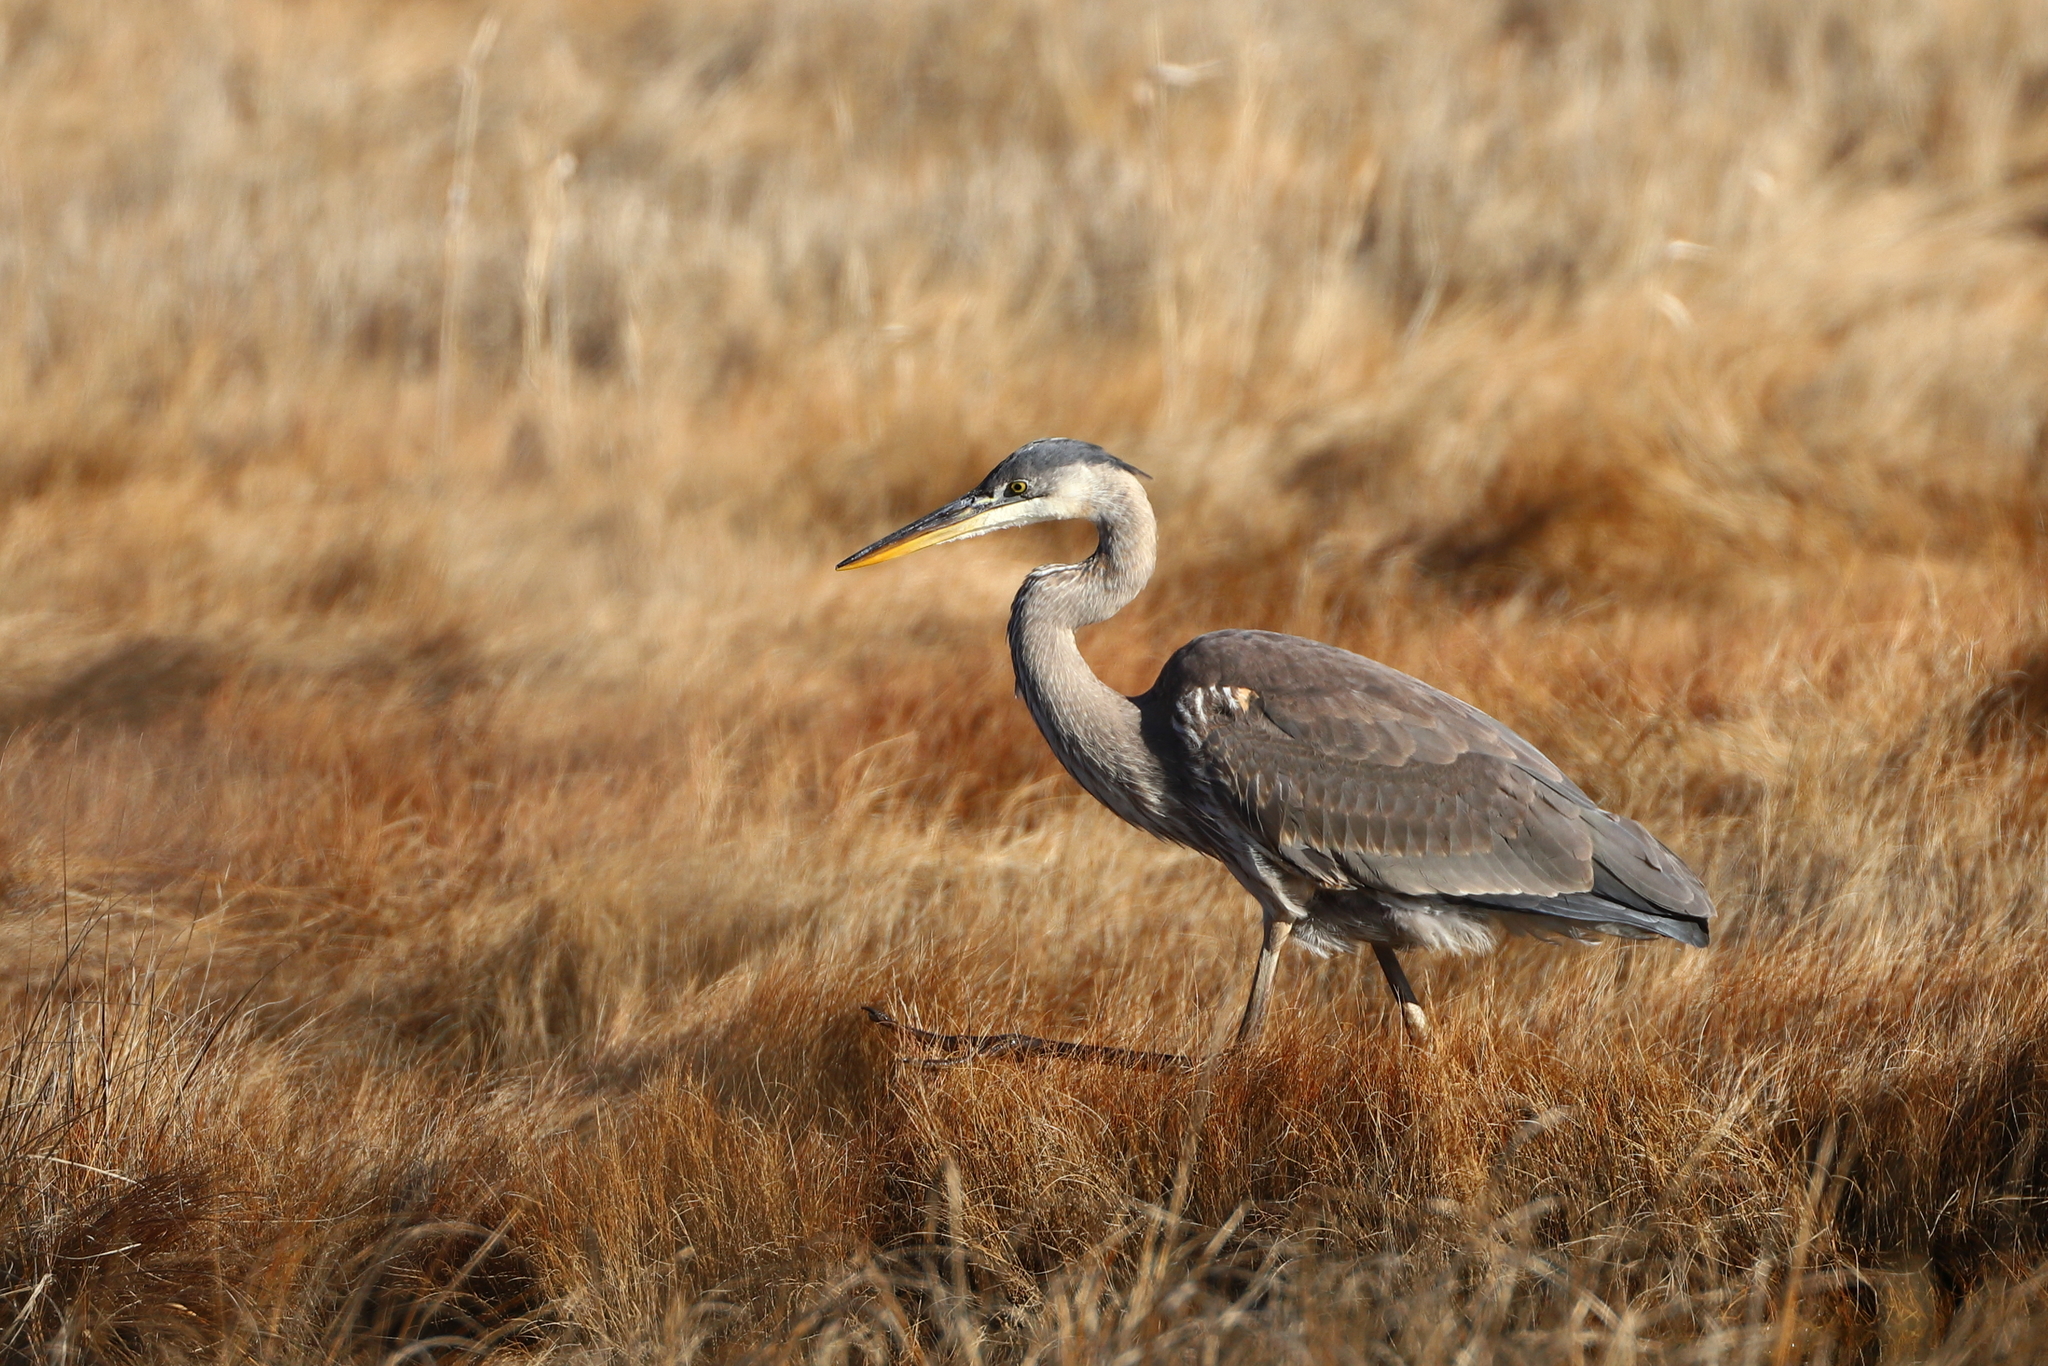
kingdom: Animalia
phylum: Chordata
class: Aves
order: Pelecaniformes
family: Ardeidae
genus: Ardea
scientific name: Ardea herodias
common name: Great blue heron
